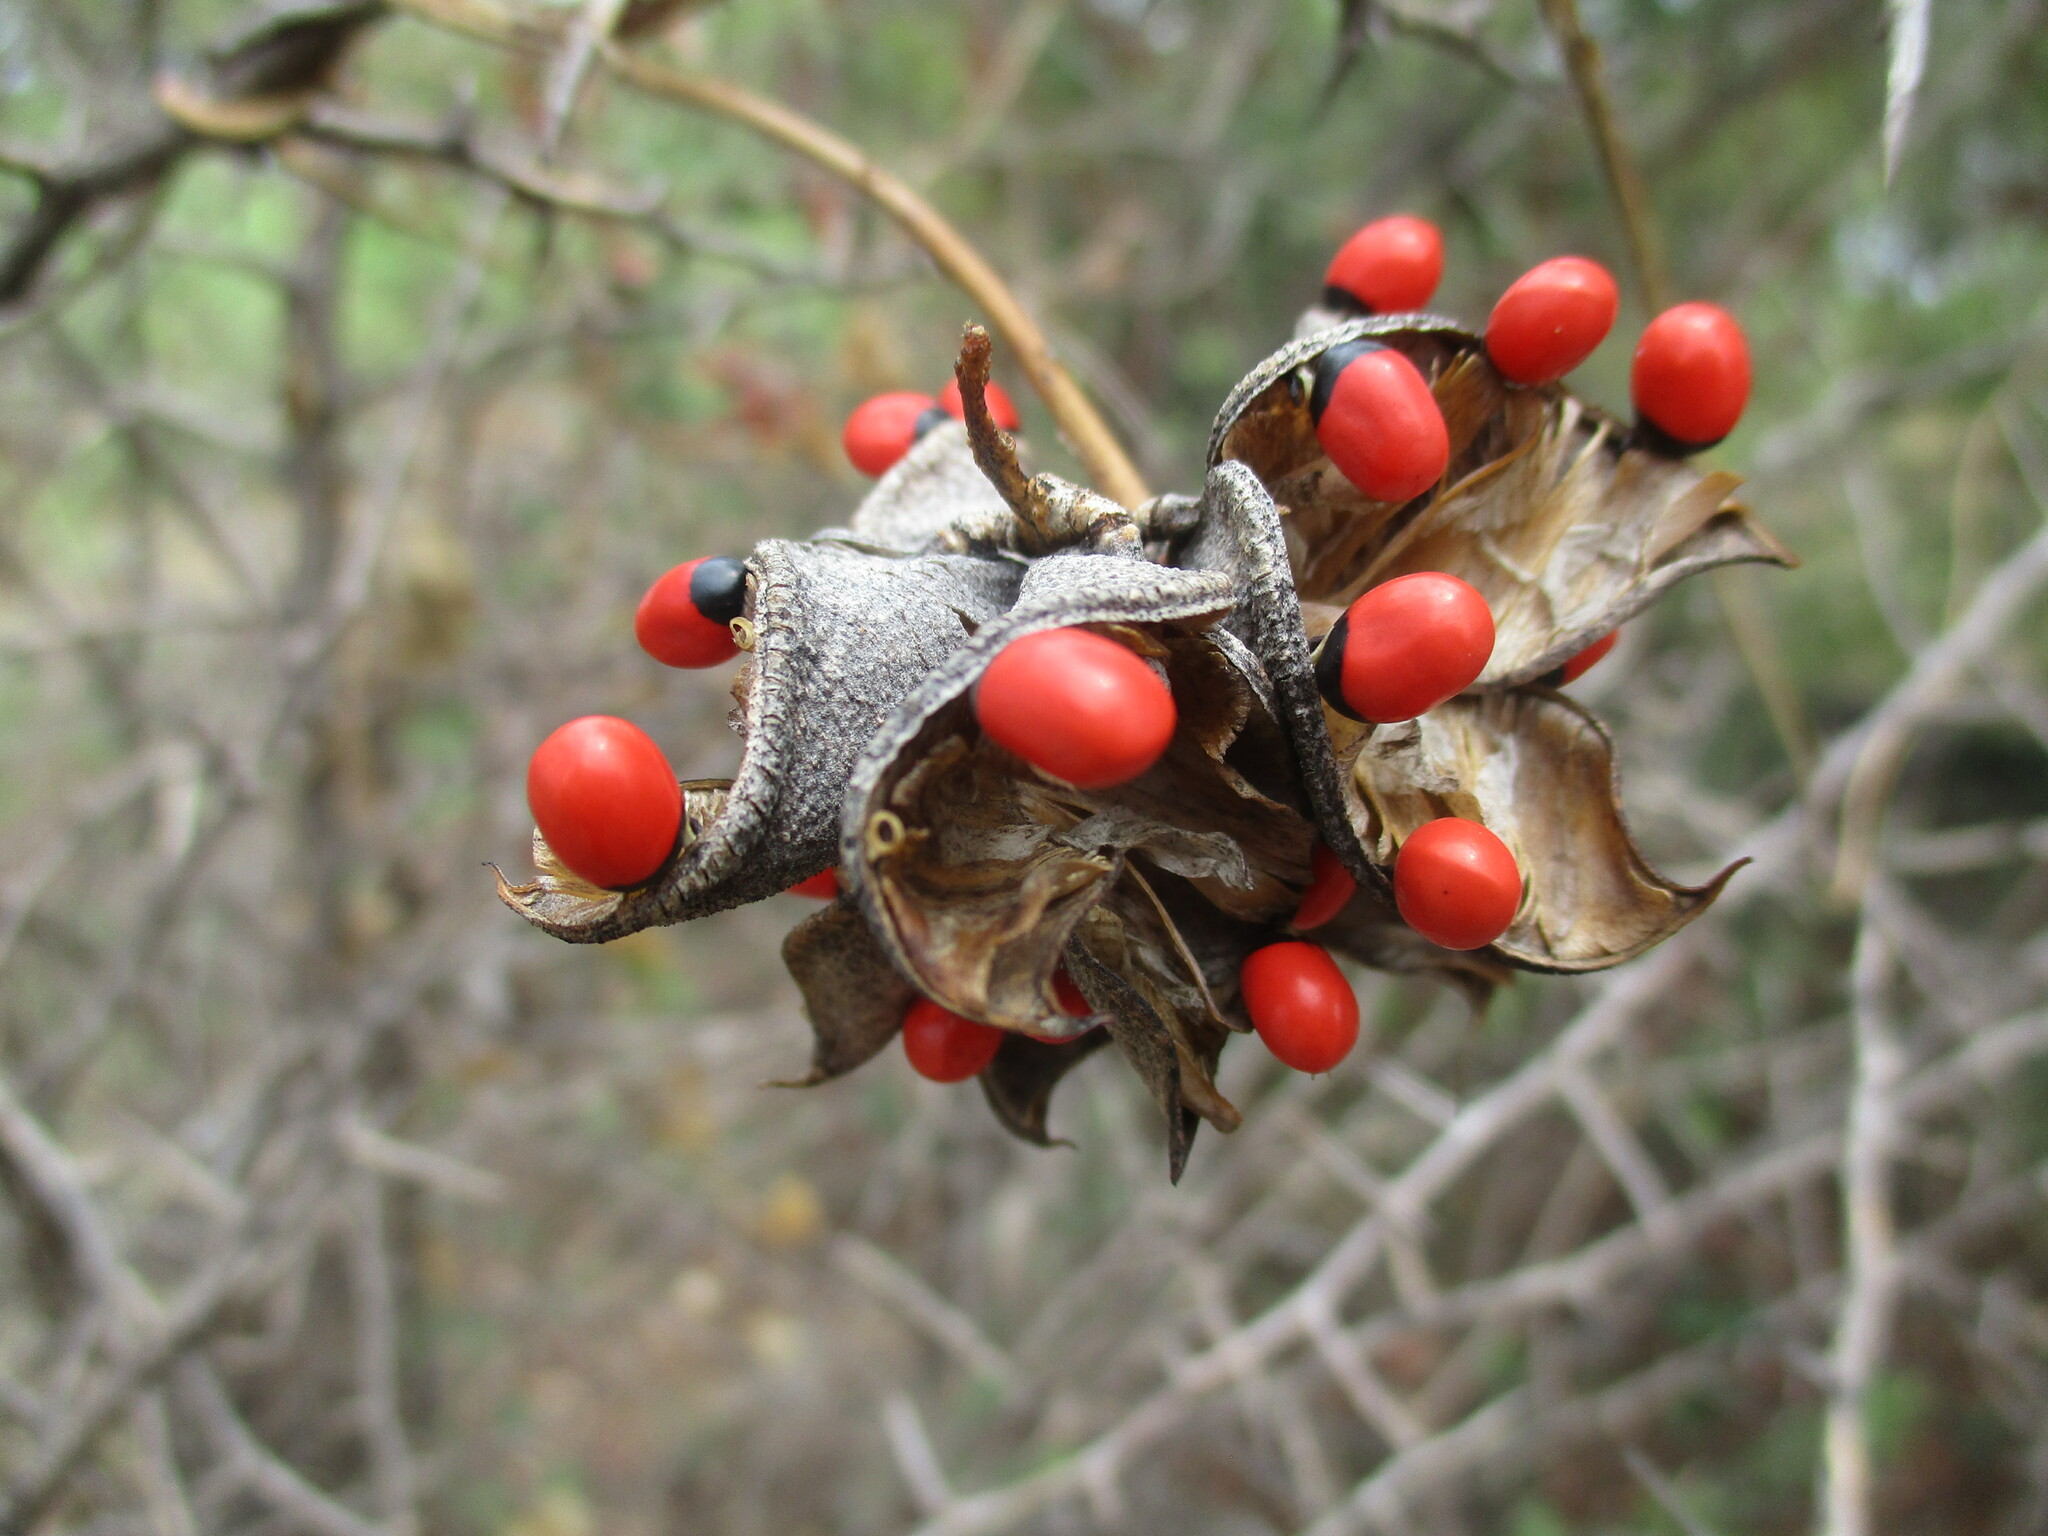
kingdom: Plantae
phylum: Tracheophyta
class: Magnoliopsida
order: Fabales
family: Fabaceae
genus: Abrus
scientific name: Abrus precatorius
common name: Rosarypea
